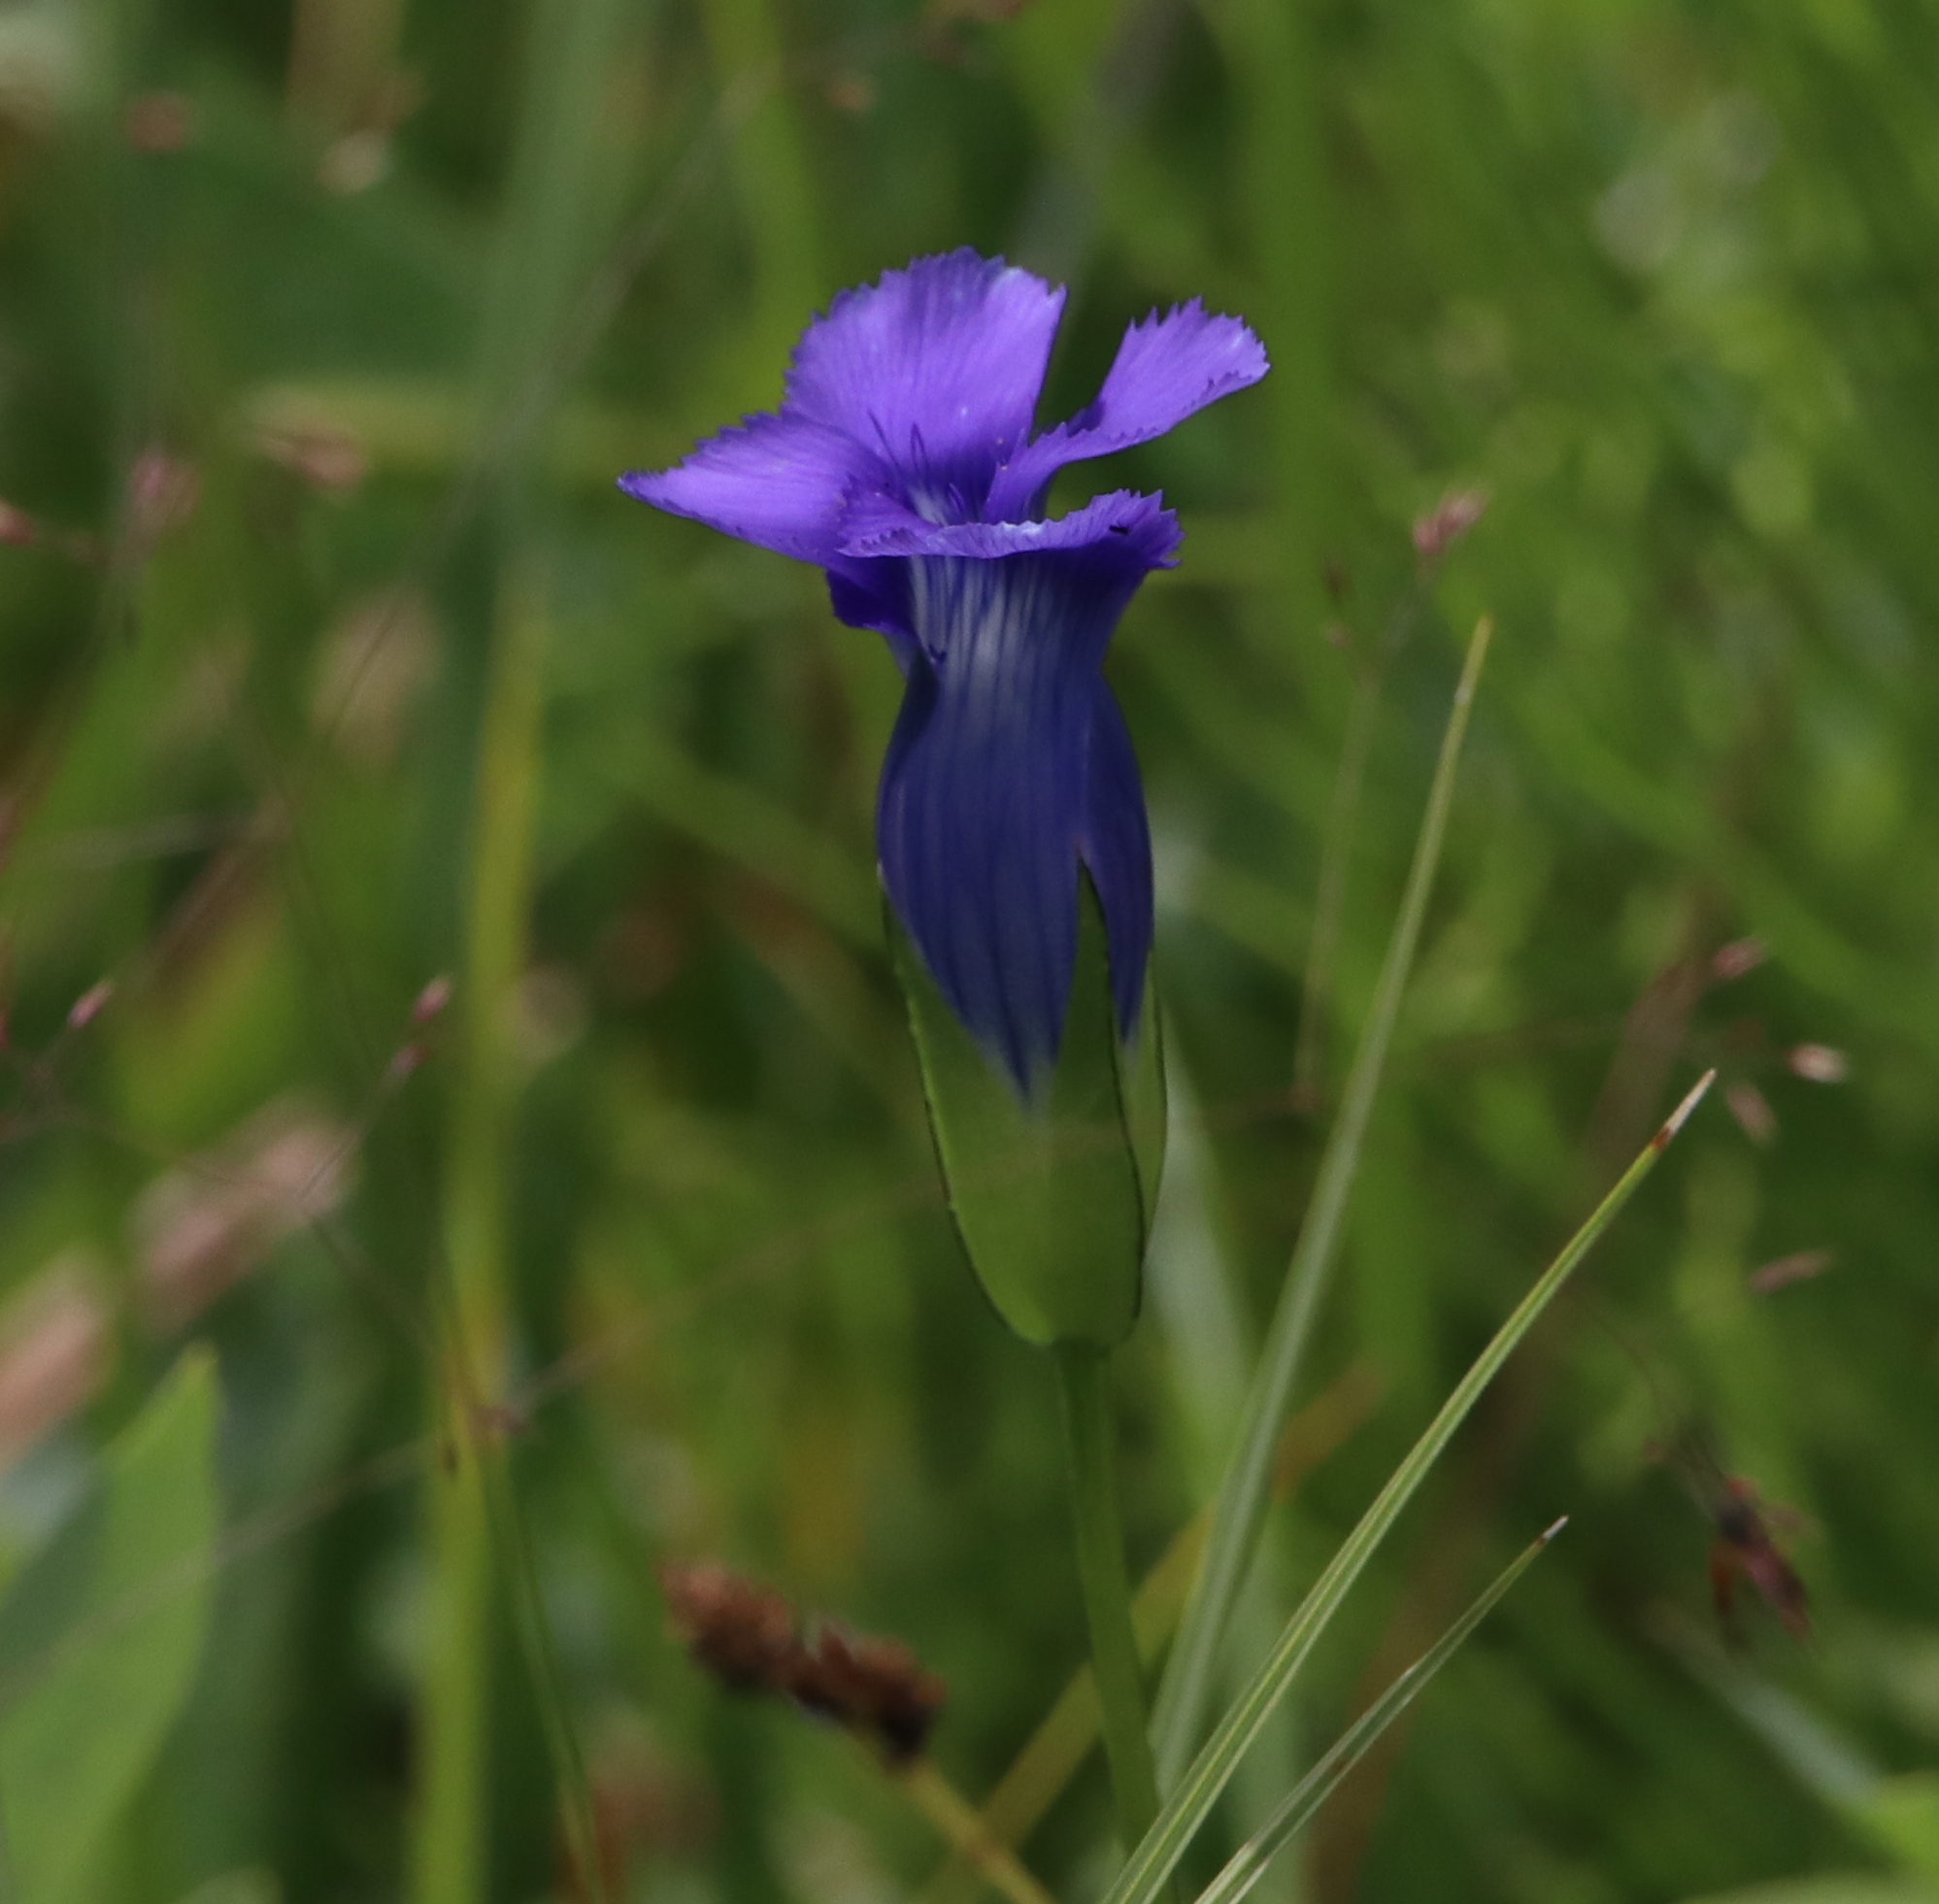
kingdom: Plantae
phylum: Tracheophyta
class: Magnoliopsida
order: Gentianales
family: Gentianaceae
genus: Gentianopsis
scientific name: Gentianopsis thermalis
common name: Rocky mountain fringed-gentian
